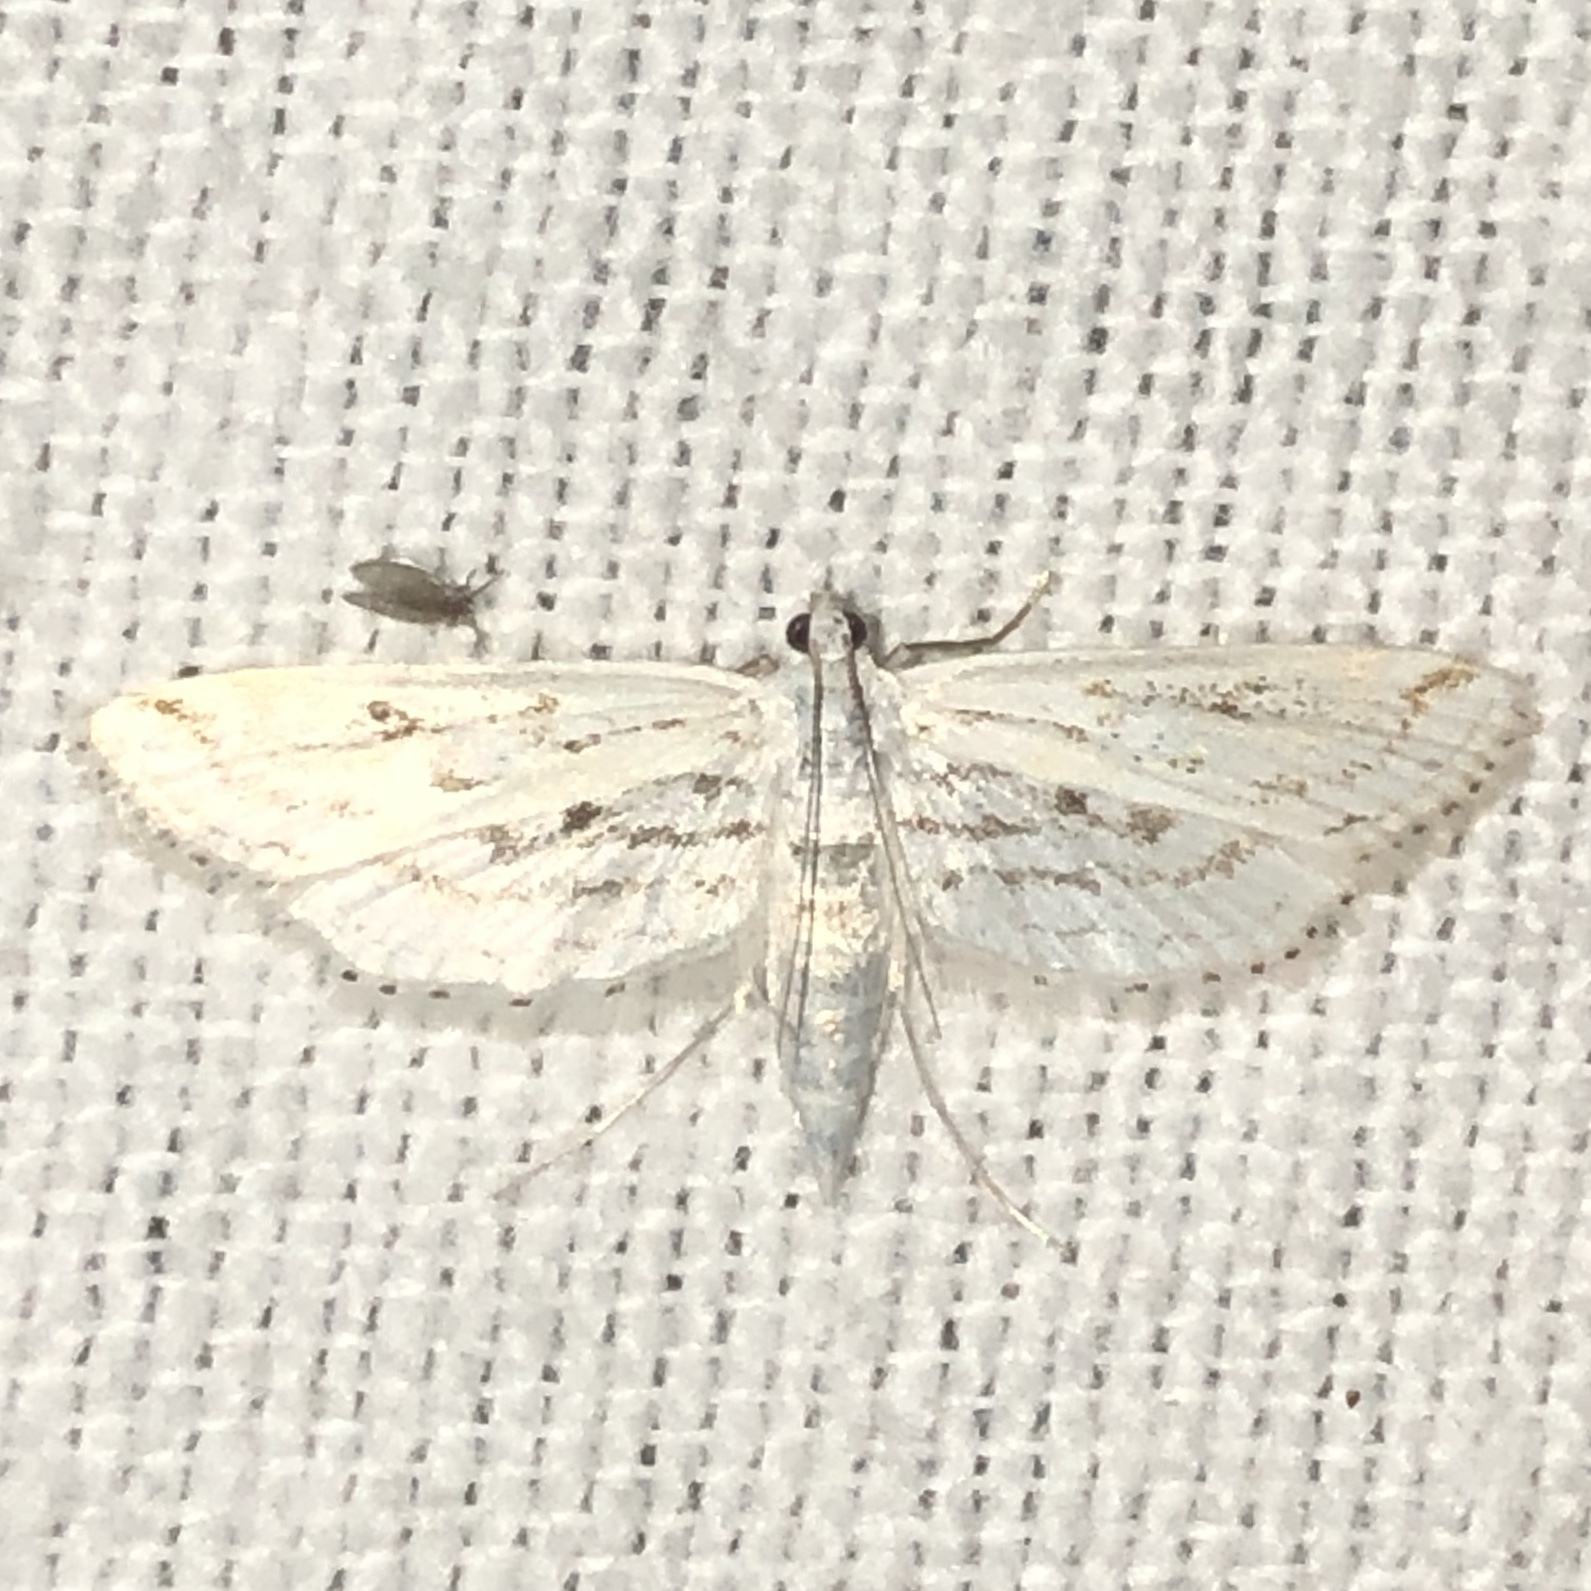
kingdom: Animalia
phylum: Arthropoda
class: Insecta
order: Lepidoptera
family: Crambidae
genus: Parapoynx
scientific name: Parapoynx allionealis
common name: Bladderwort casemaker
